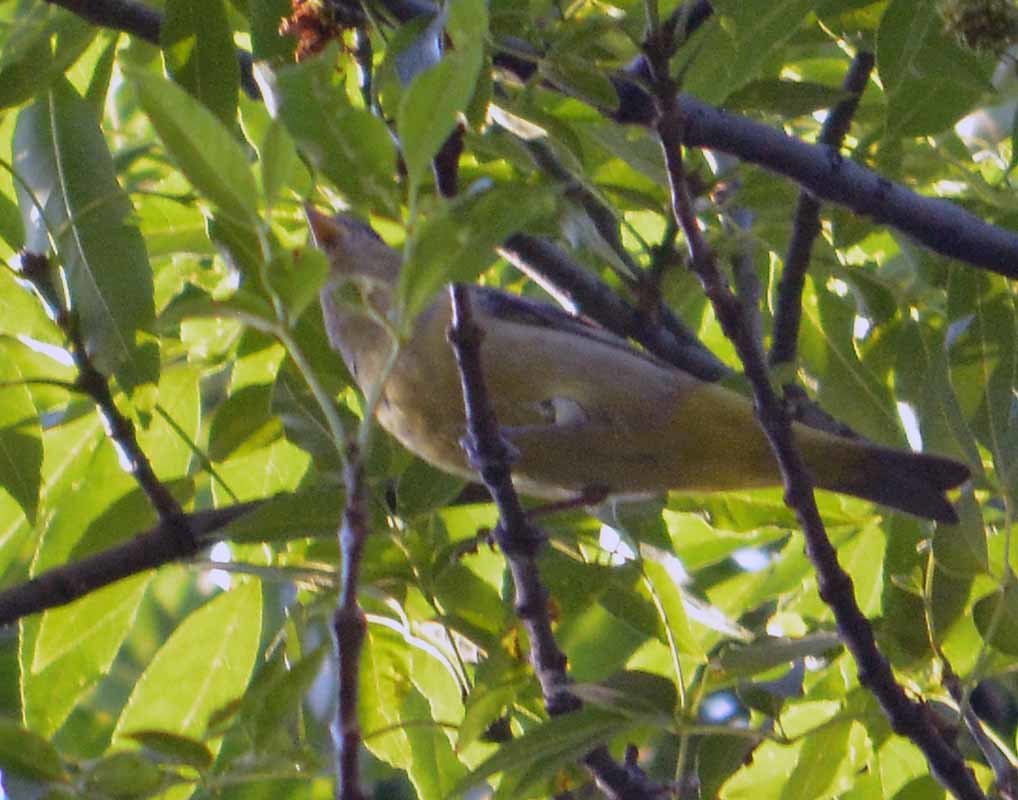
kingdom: Animalia
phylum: Chordata
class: Aves
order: Passeriformes
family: Cardinalidae
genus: Piranga
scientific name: Piranga ludoviciana
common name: Western tanager
